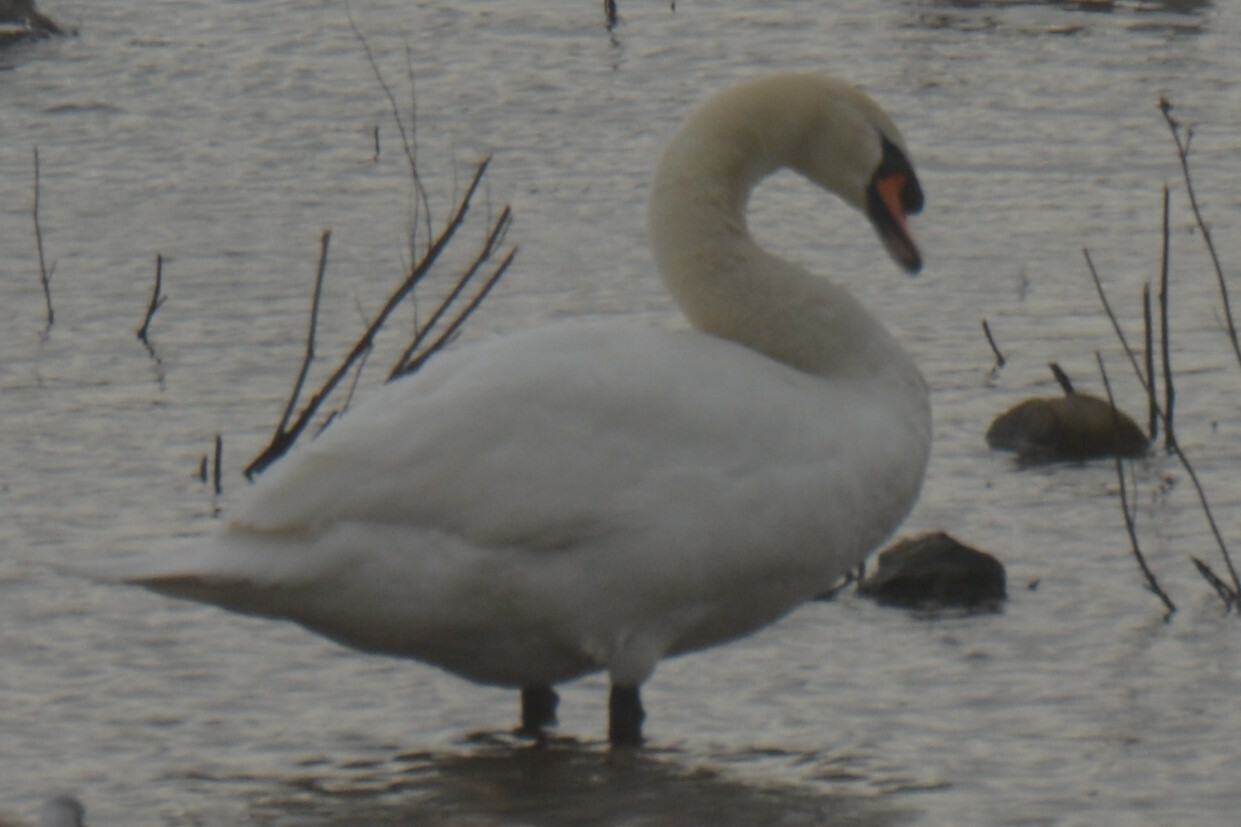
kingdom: Animalia
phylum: Chordata
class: Aves
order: Anseriformes
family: Anatidae
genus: Cygnus
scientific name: Cygnus olor
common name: Mute swan
